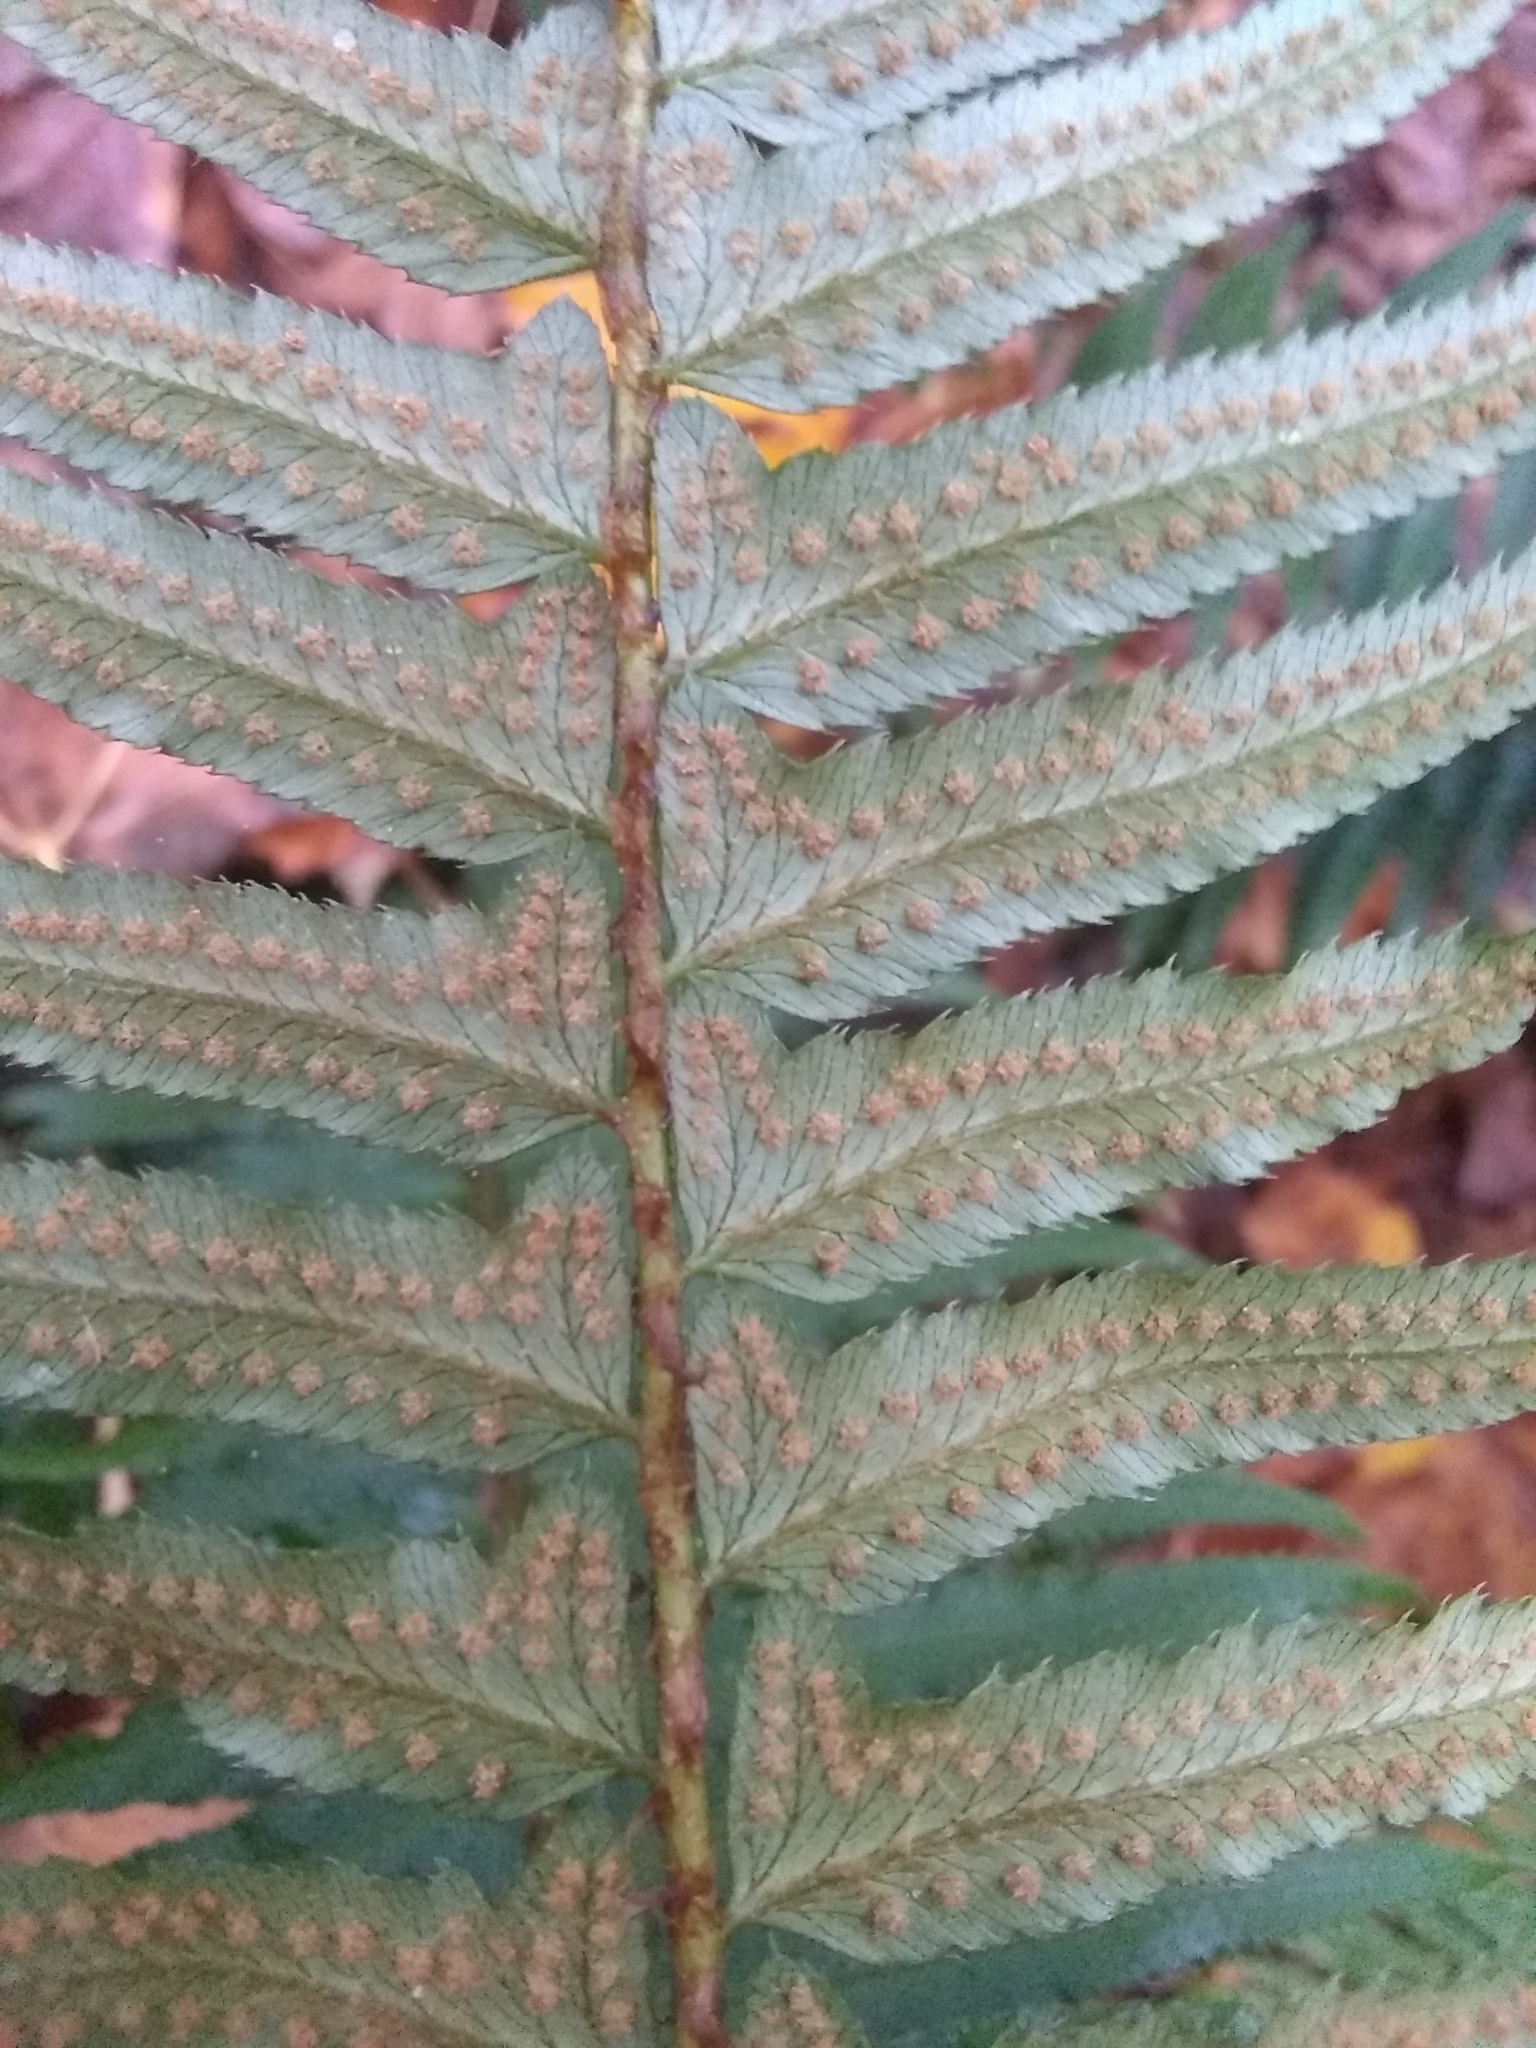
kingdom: Plantae
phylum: Tracheophyta
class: Polypodiopsida
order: Polypodiales
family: Dryopteridaceae
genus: Polystichum
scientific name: Polystichum munitum
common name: Western sword-fern
